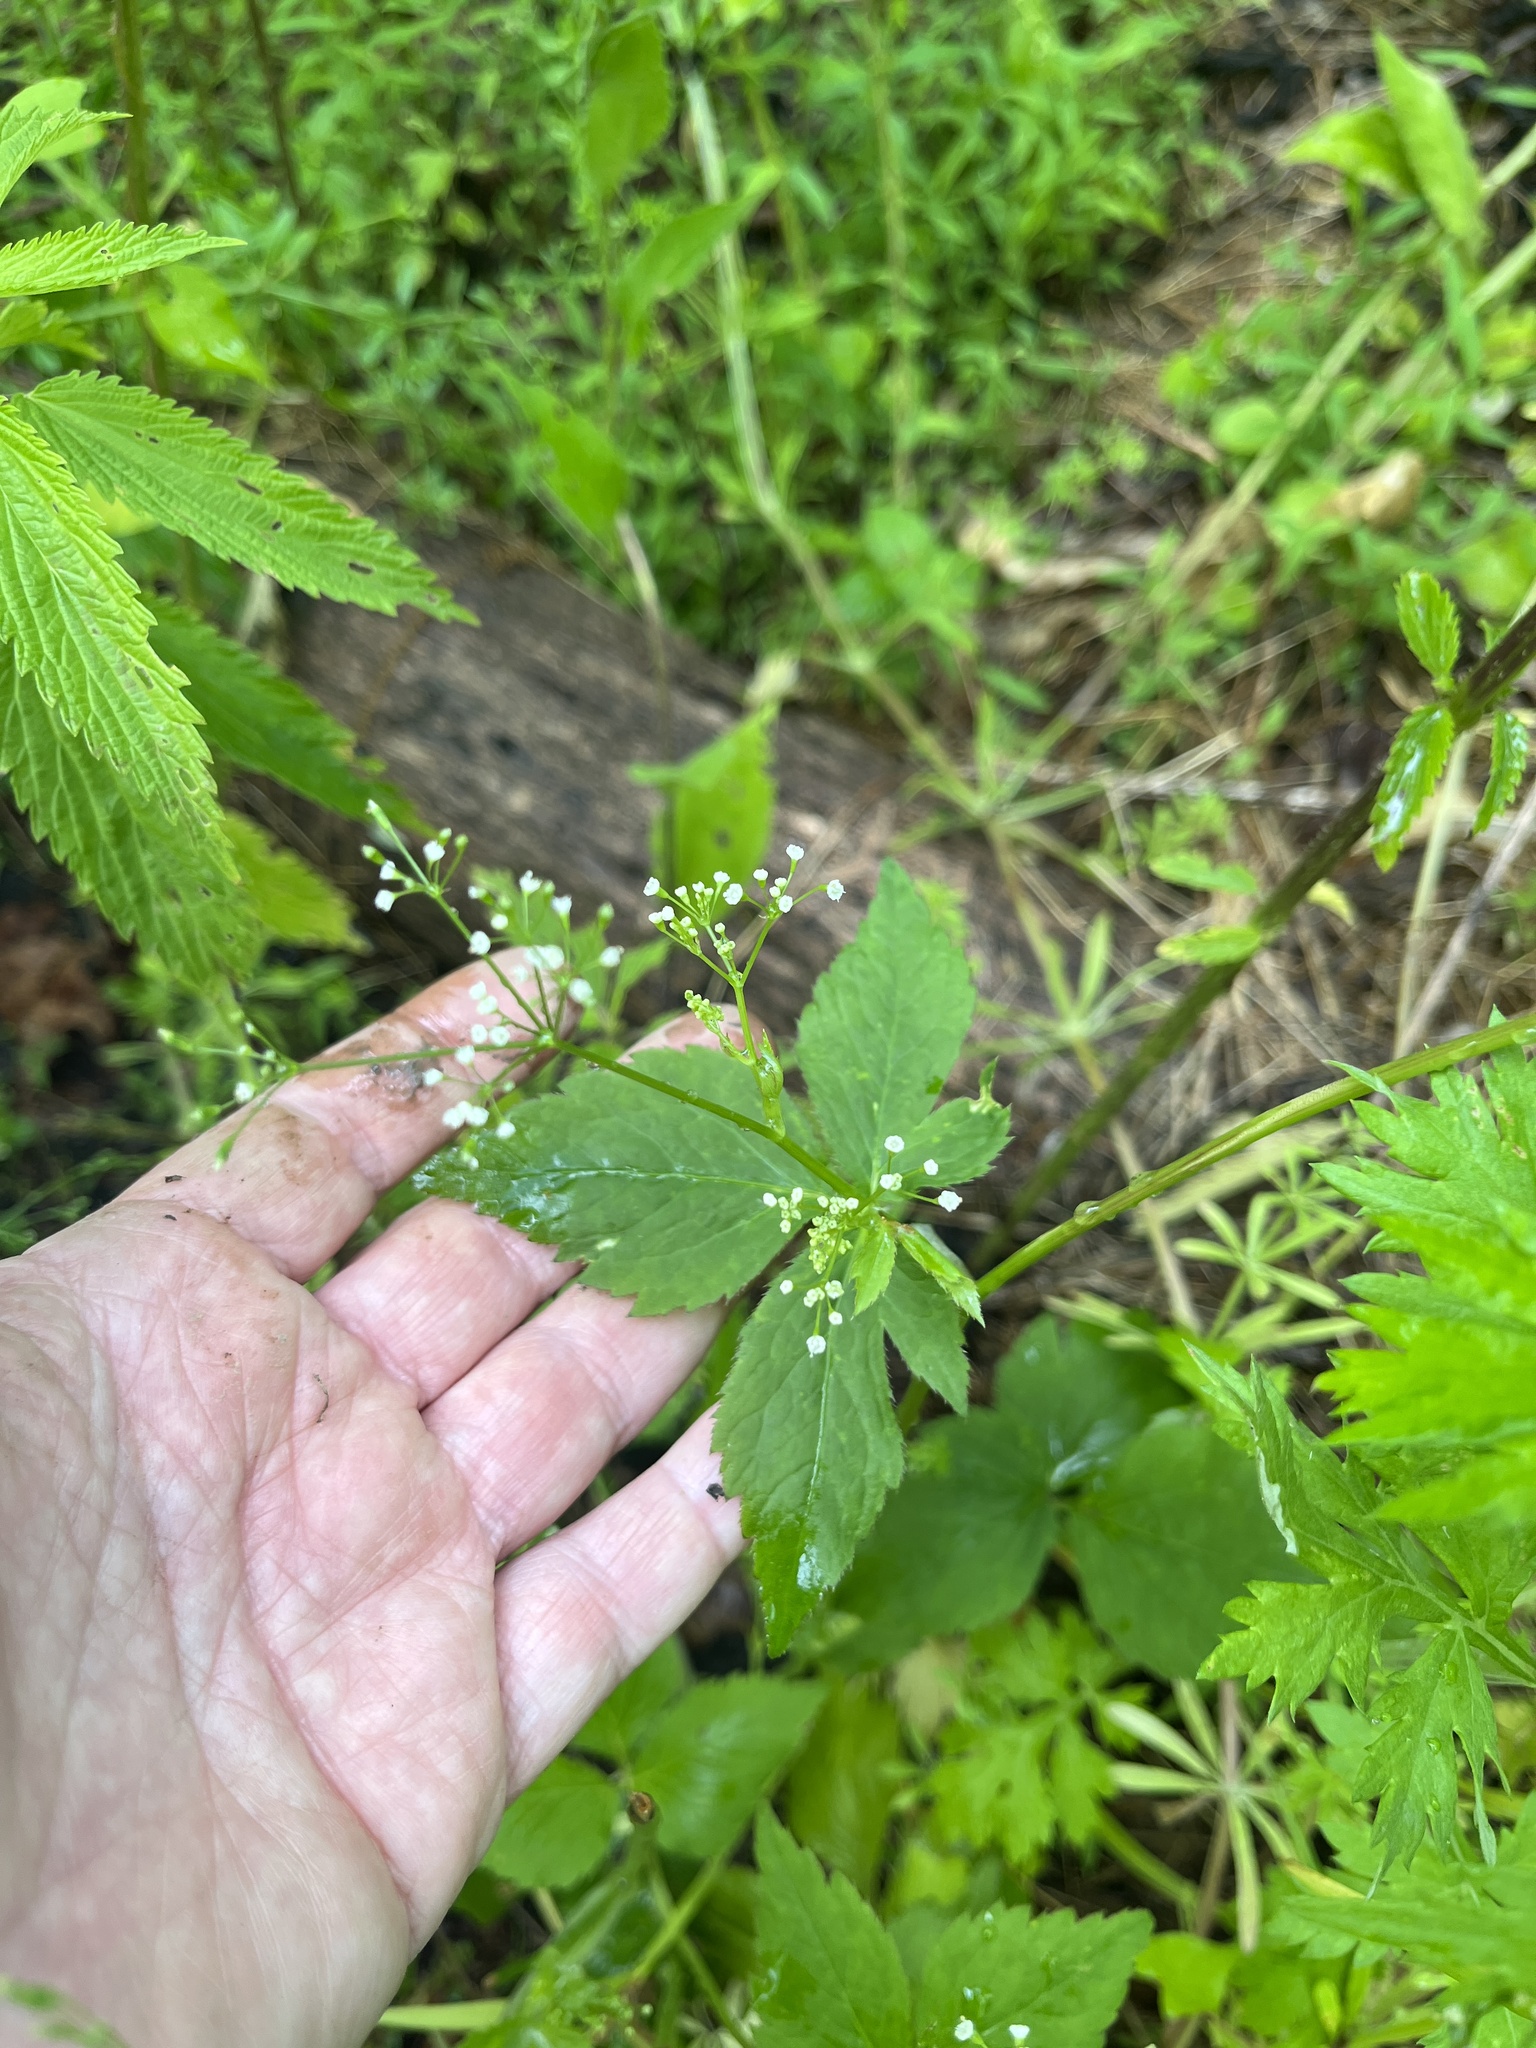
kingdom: Plantae
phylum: Tracheophyta
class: Magnoliopsida
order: Apiales
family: Apiaceae
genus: Cryptotaenia
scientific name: Cryptotaenia canadensis
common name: Honewort
